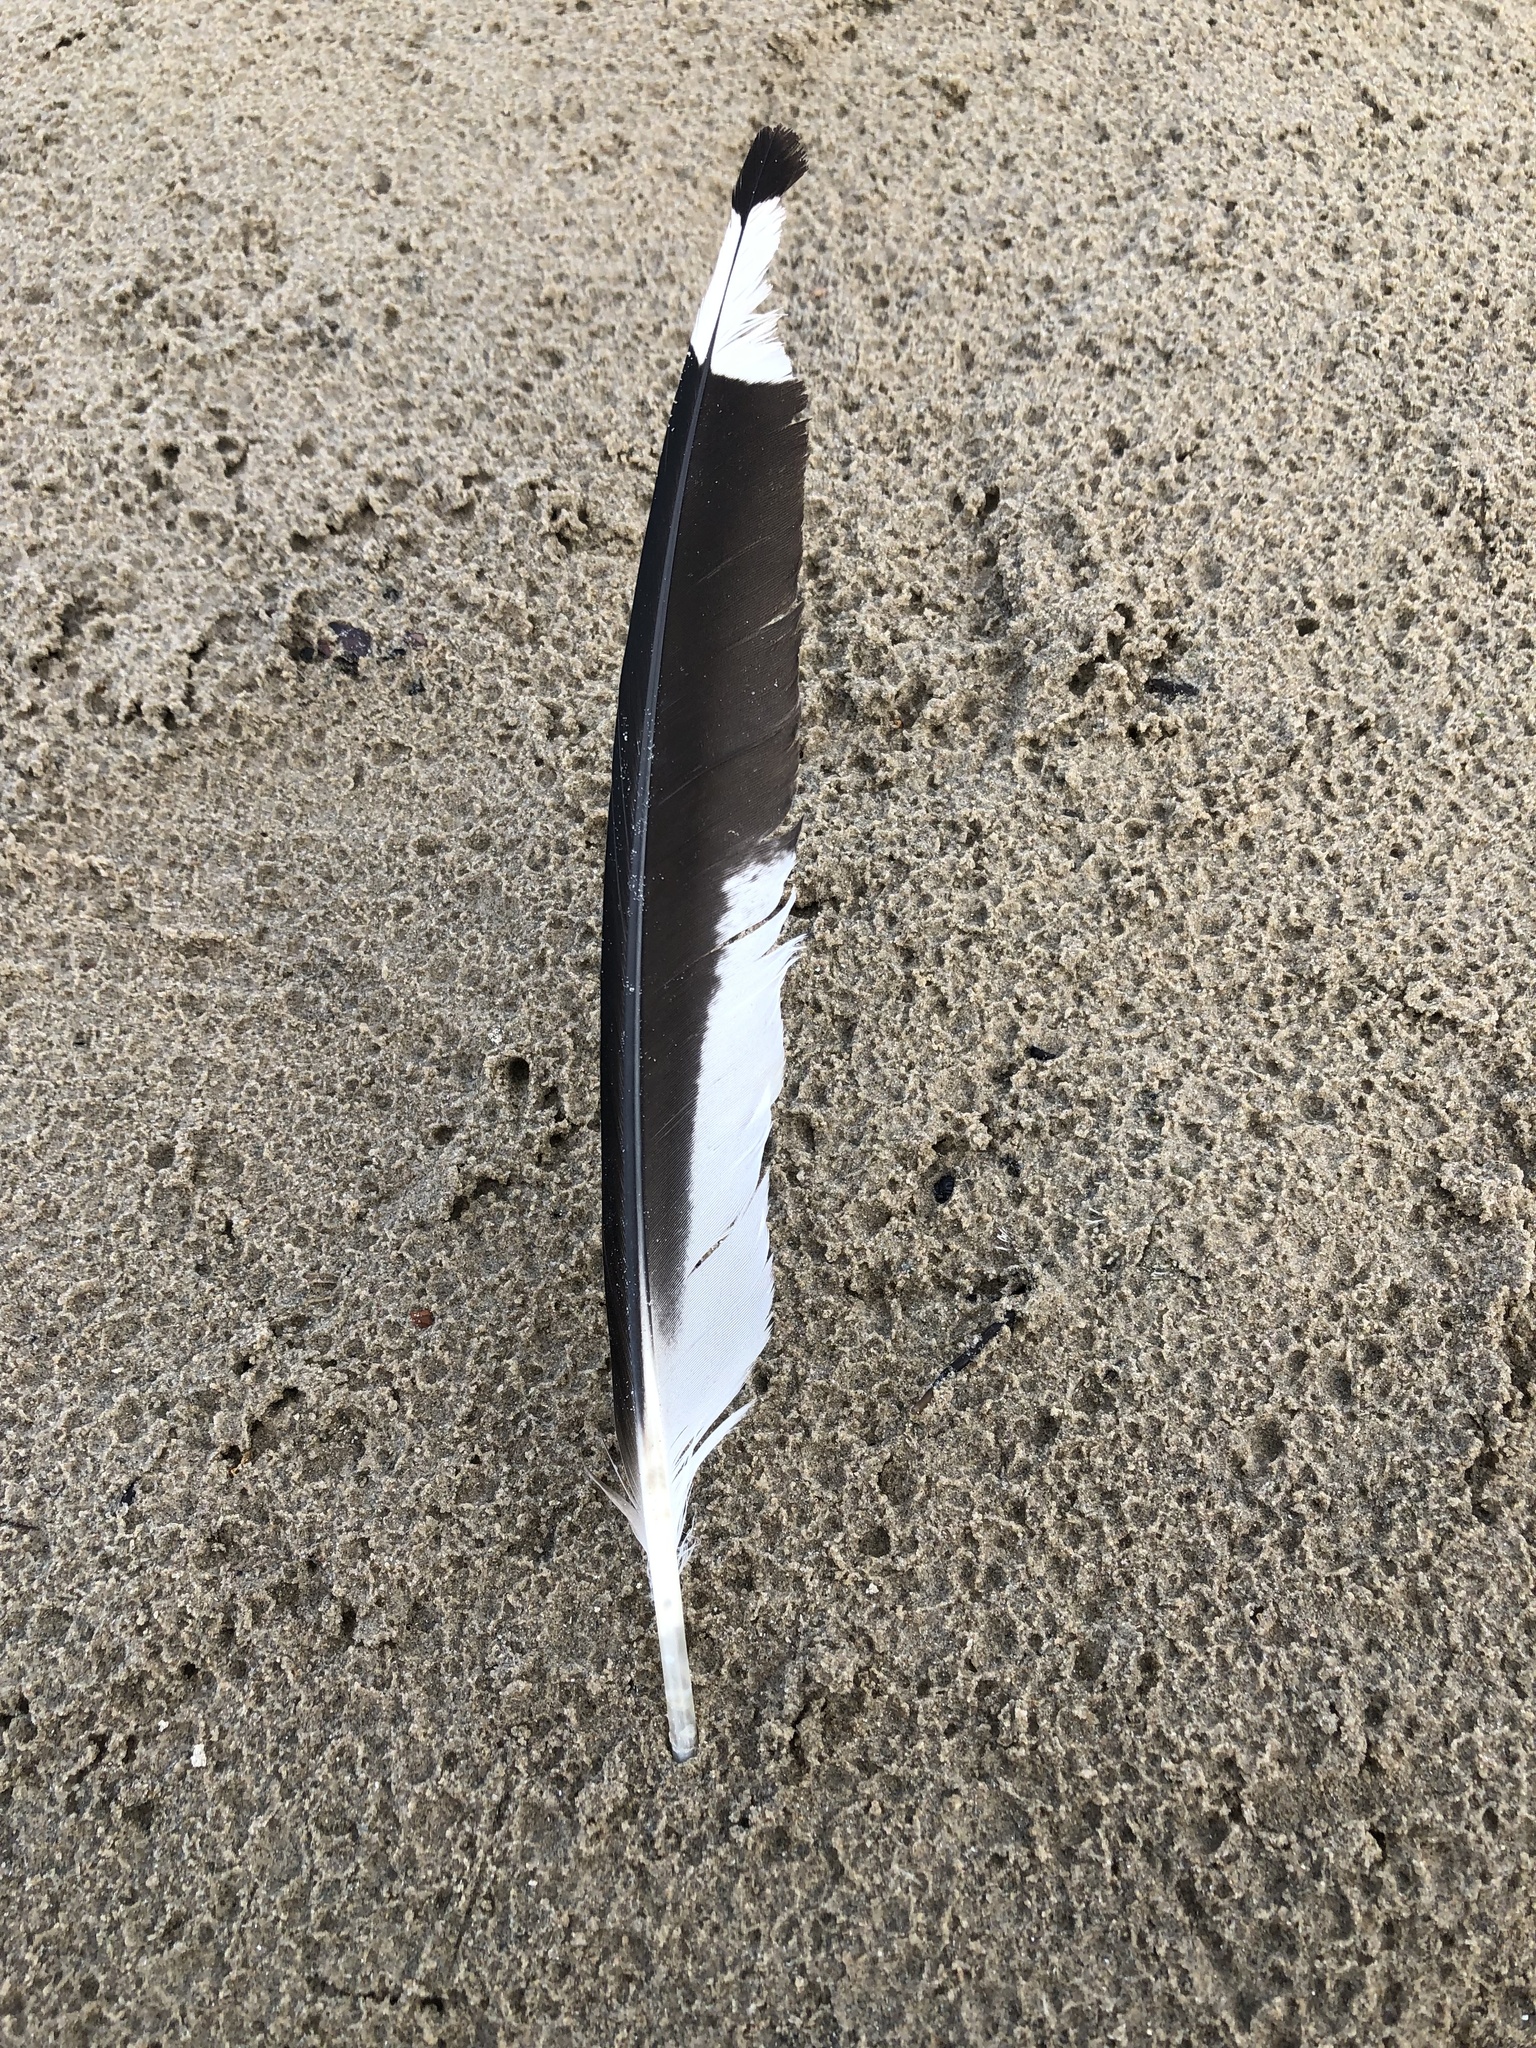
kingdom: Animalia
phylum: Chordata
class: Aves
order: Charadriiformes
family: Laridae
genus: Larus
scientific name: Larus delawarensis
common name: Ring-billed gull
